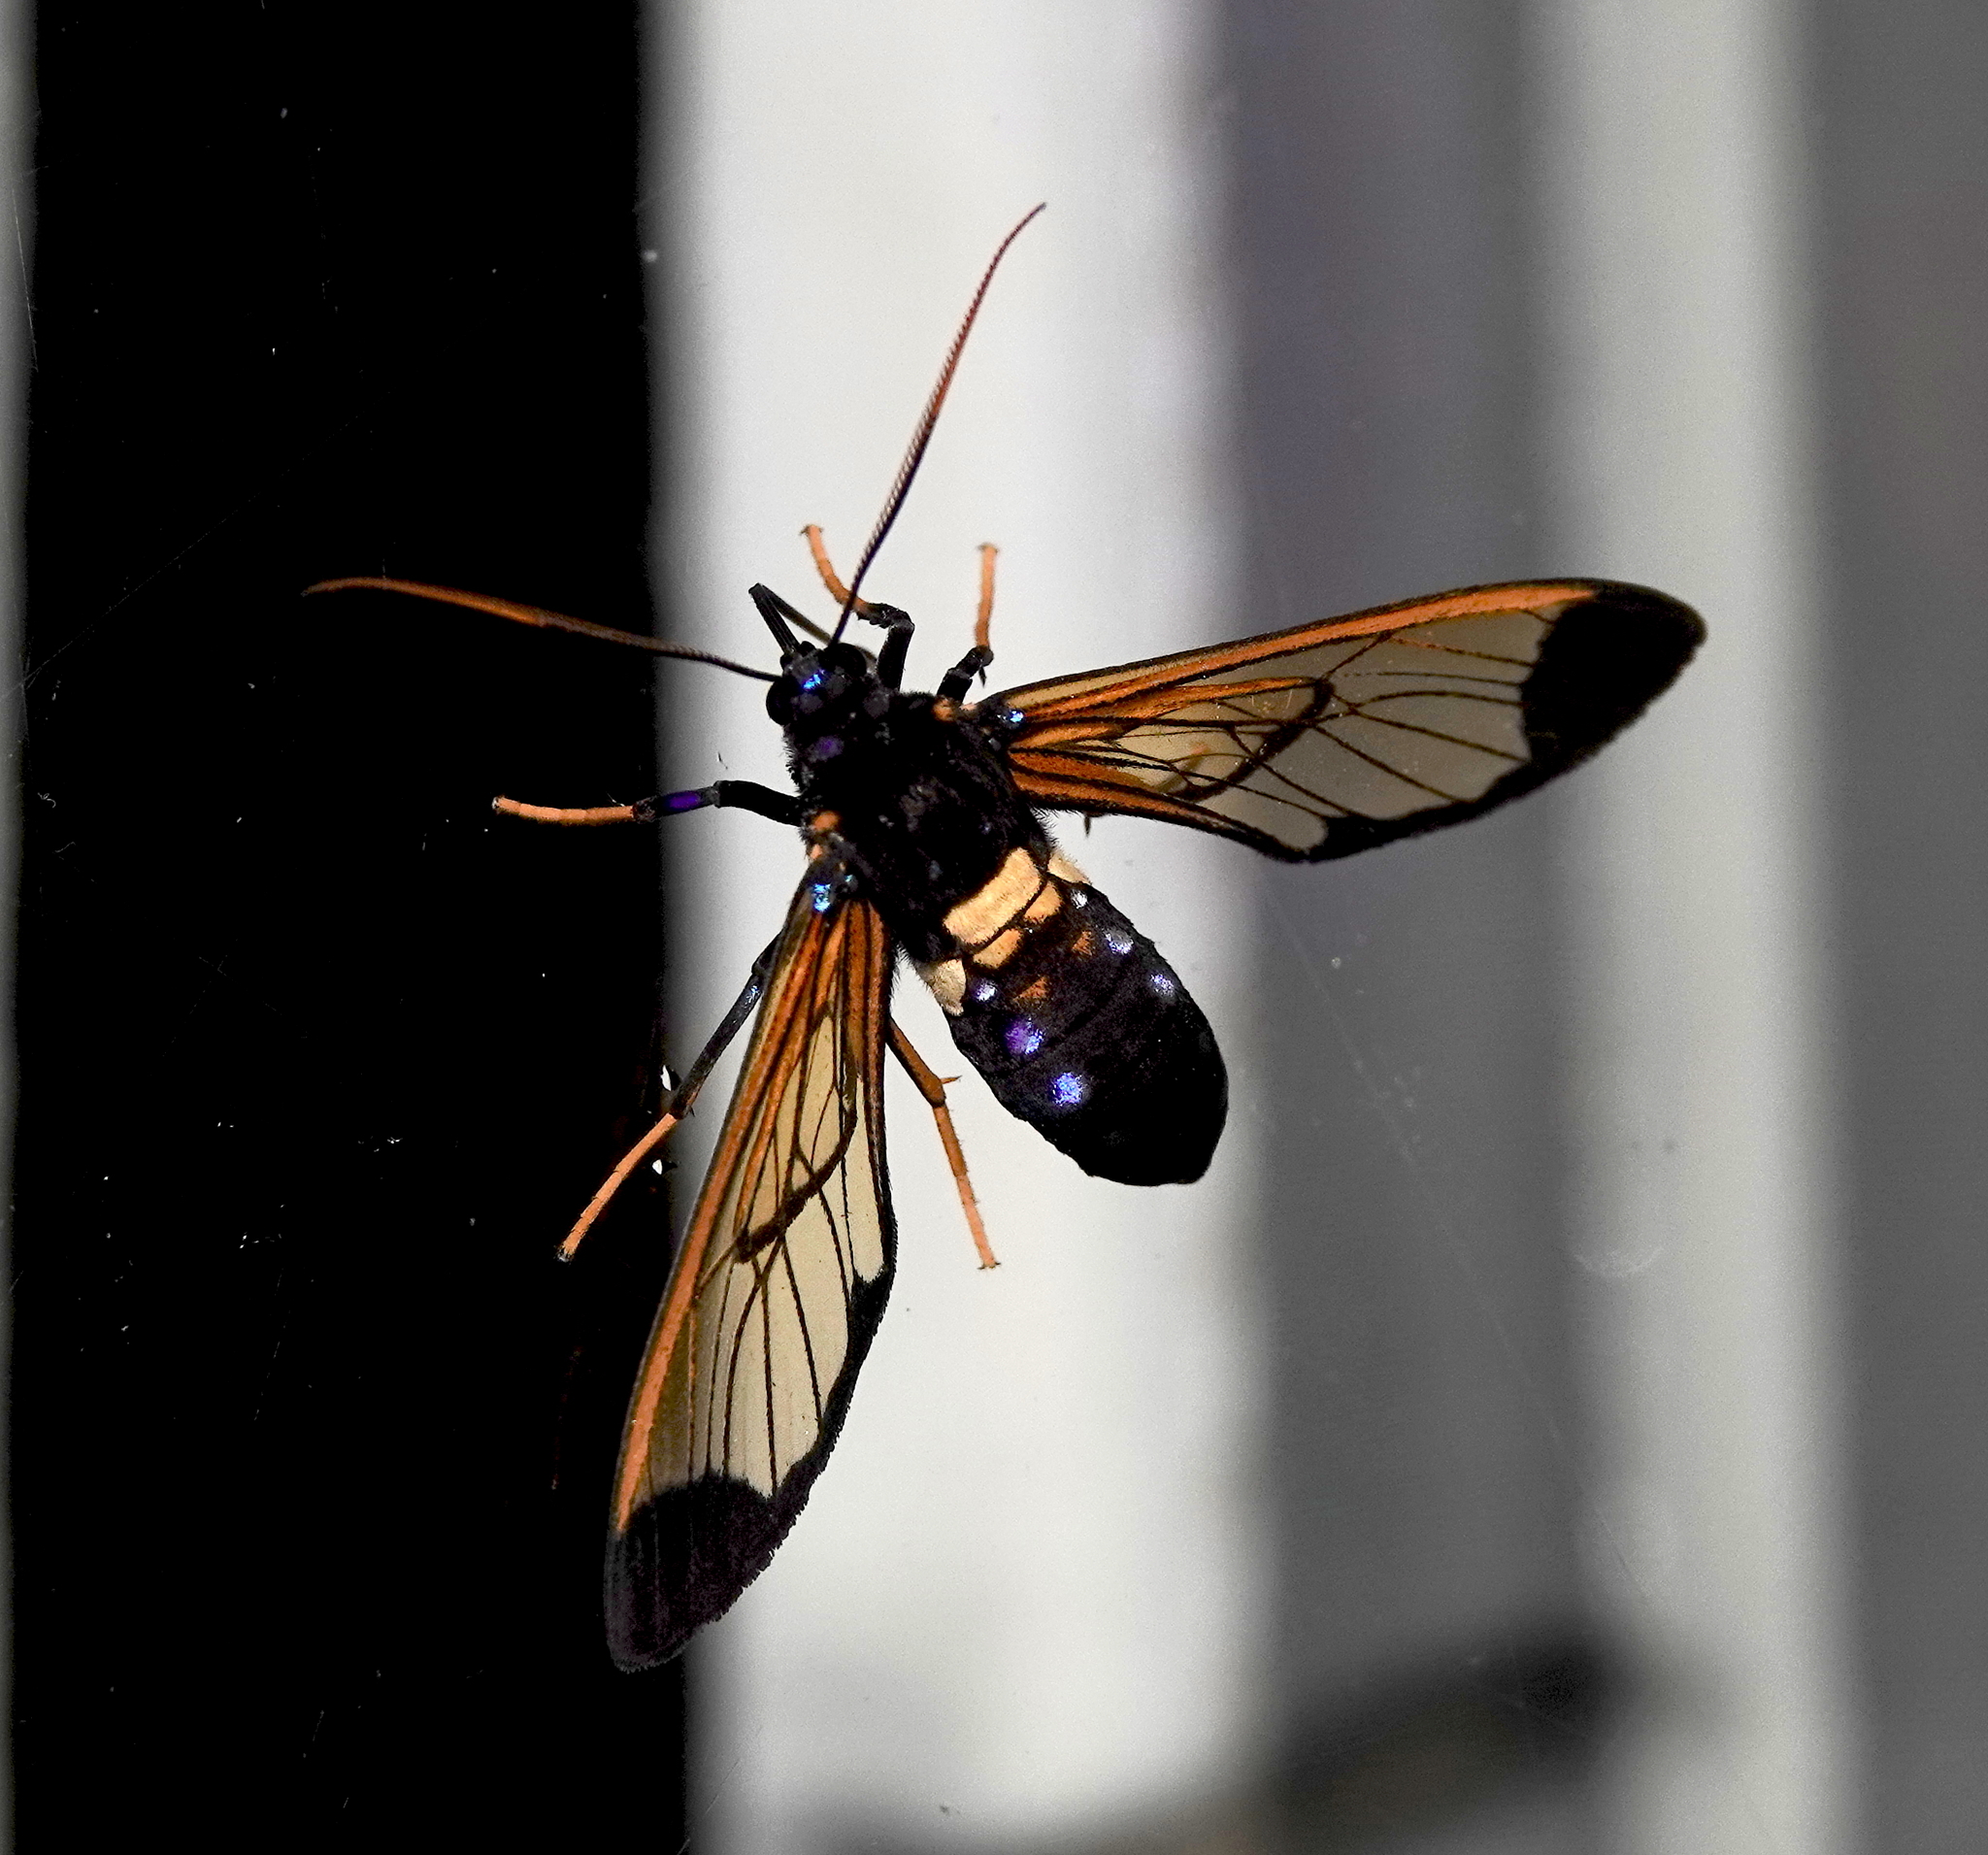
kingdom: Animalia
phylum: Arthropoda
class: Insecta
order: Lepidoptera
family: Erebidae
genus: Isanthrene
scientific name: Isanthrene basifera
